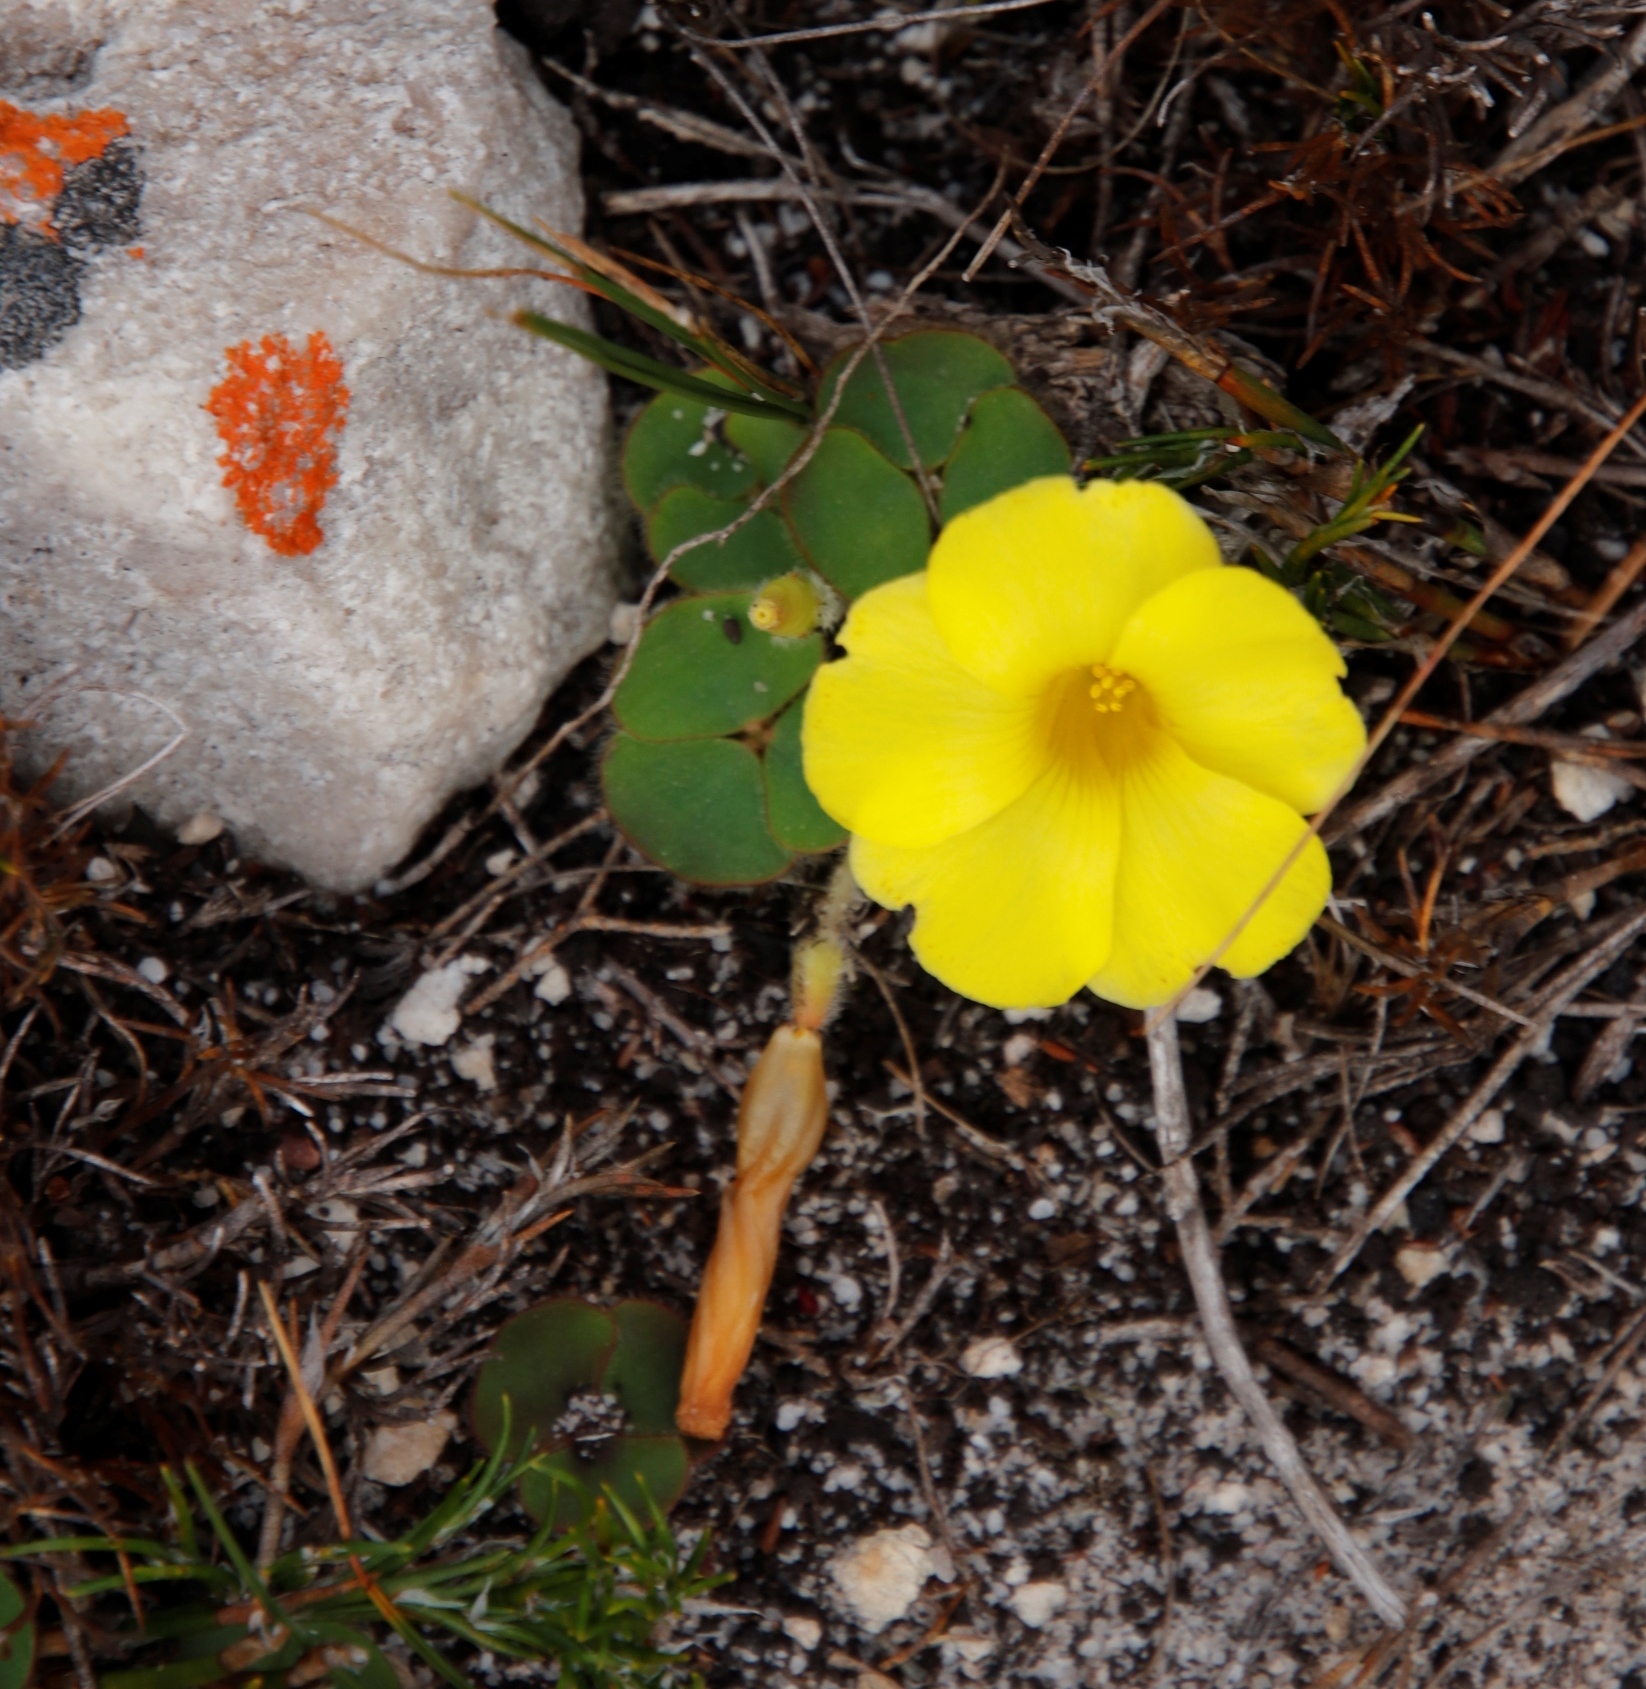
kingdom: Plantae
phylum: Tracheophyta
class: Magnoliopsida
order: Oxalidales
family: Oxalidaceae
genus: Oxalis
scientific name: Oxalis luteola
